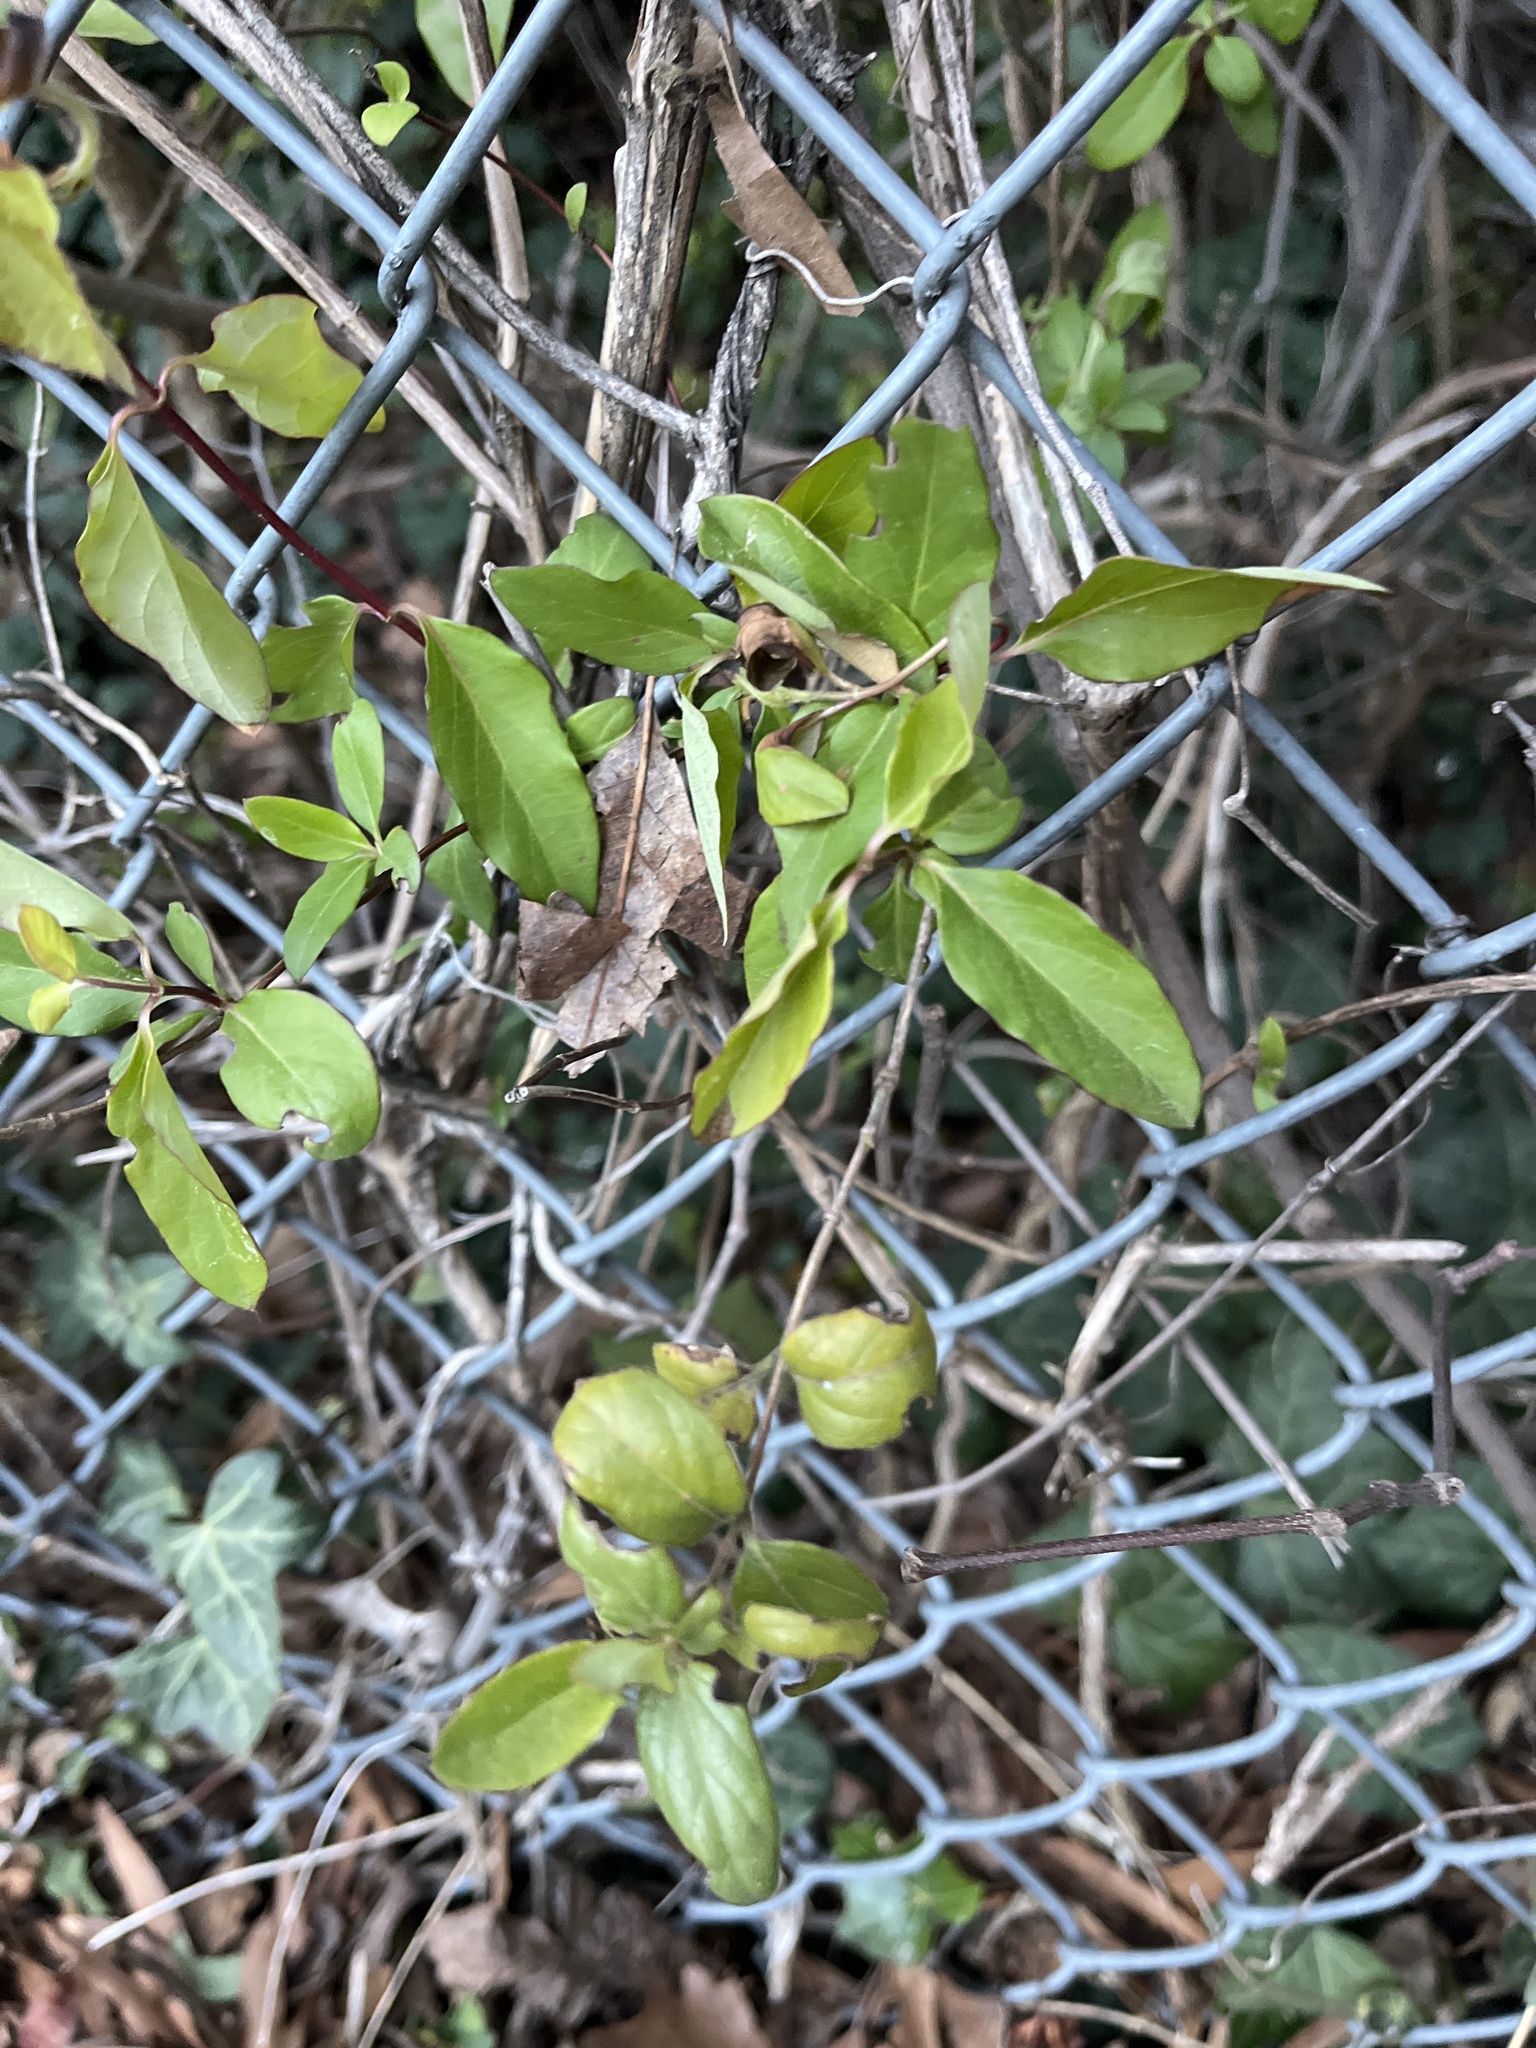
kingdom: Plantae
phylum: Tracheophyta
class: Magnoliopsida
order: Dipsacales
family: Caprifoliaceae
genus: Lonicera
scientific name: Lonicera japonica
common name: Japanese honeysuckle
